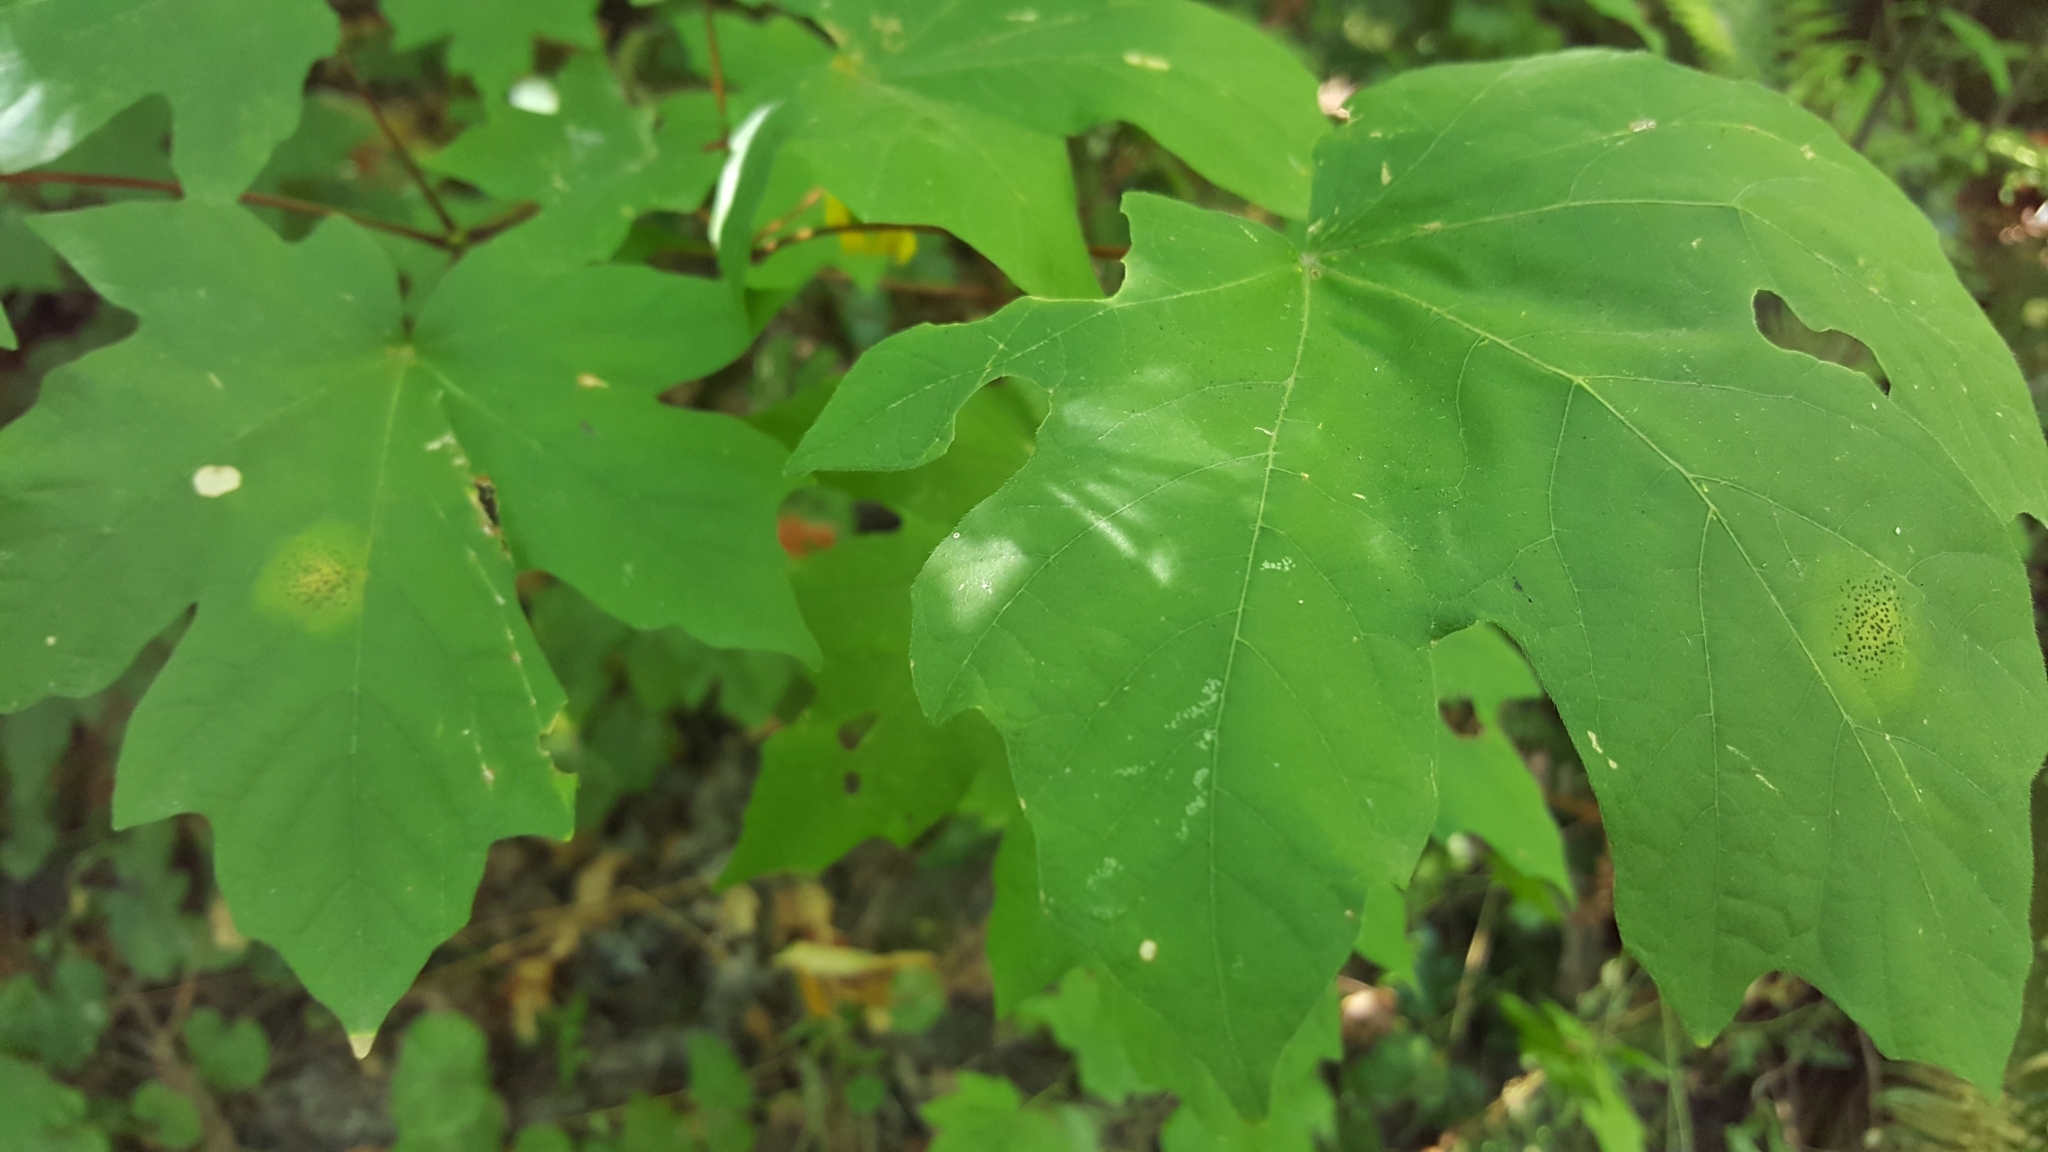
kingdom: Fungi
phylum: Ascomycota
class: Leotiomycetes
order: Rhytismatales
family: Rhytismataceae
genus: Rhytisma
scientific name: Rhytisma punctatum
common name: Speckled tar spot
